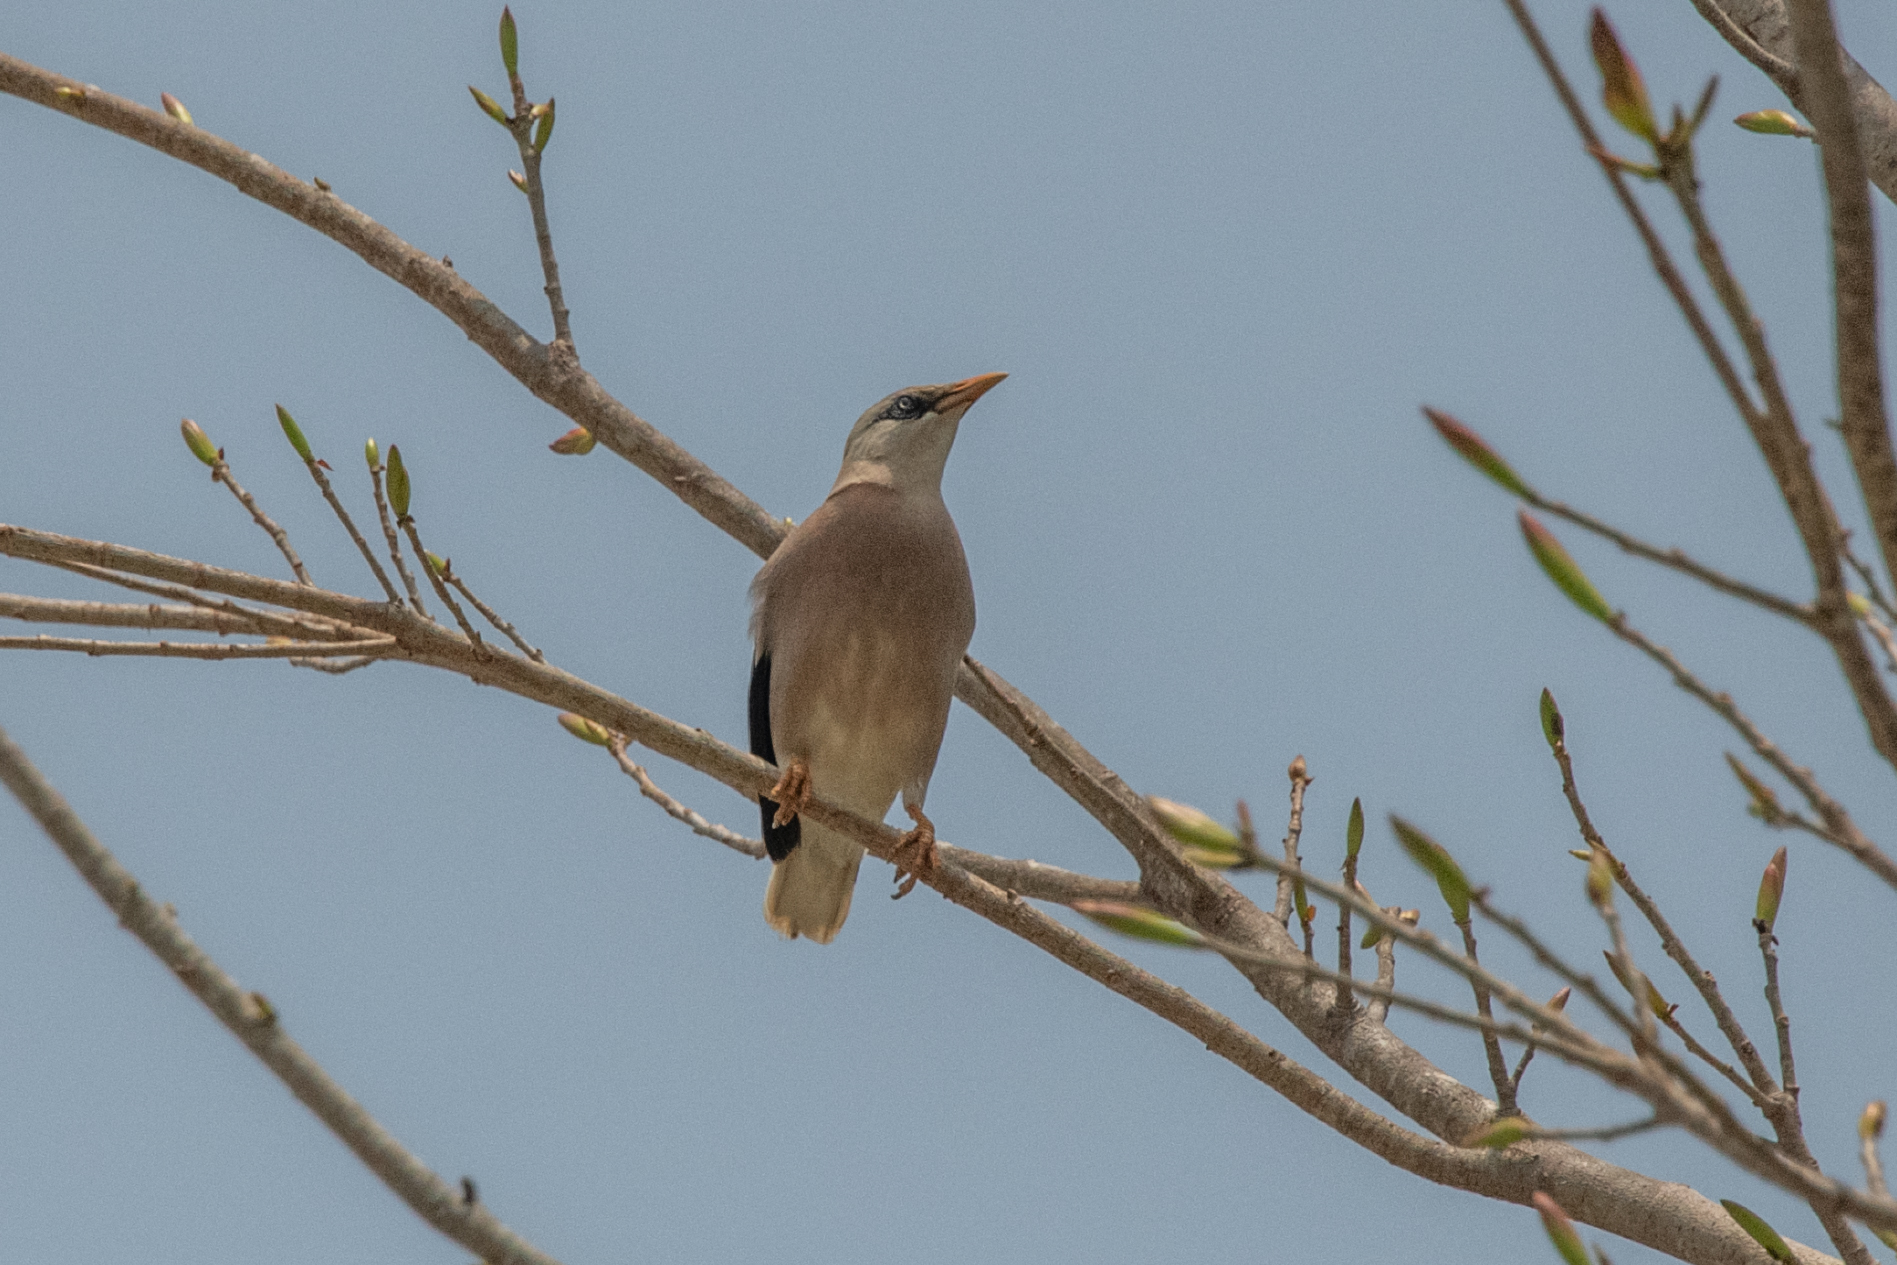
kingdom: Animalia
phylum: Chordata
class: Aves
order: Passeriformes
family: Sturnidae
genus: Acridotheres
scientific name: Acridotheres leucocephalus
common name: Vinous-breasted myna
